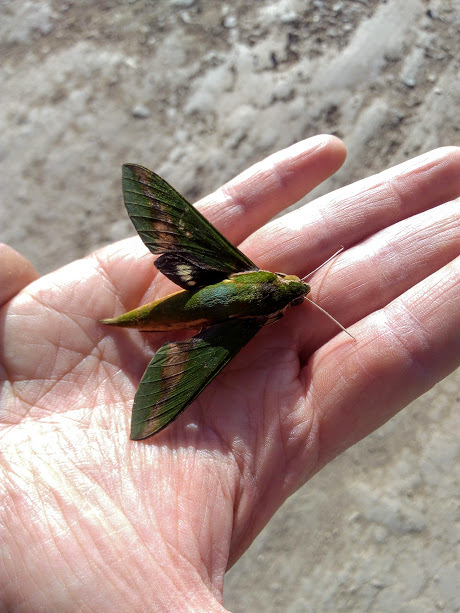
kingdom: Animalia
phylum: Arthropoda
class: Insecta
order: Lepidoptera
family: Sphingidae
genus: Xylophanes
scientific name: Xylophanes chiron
